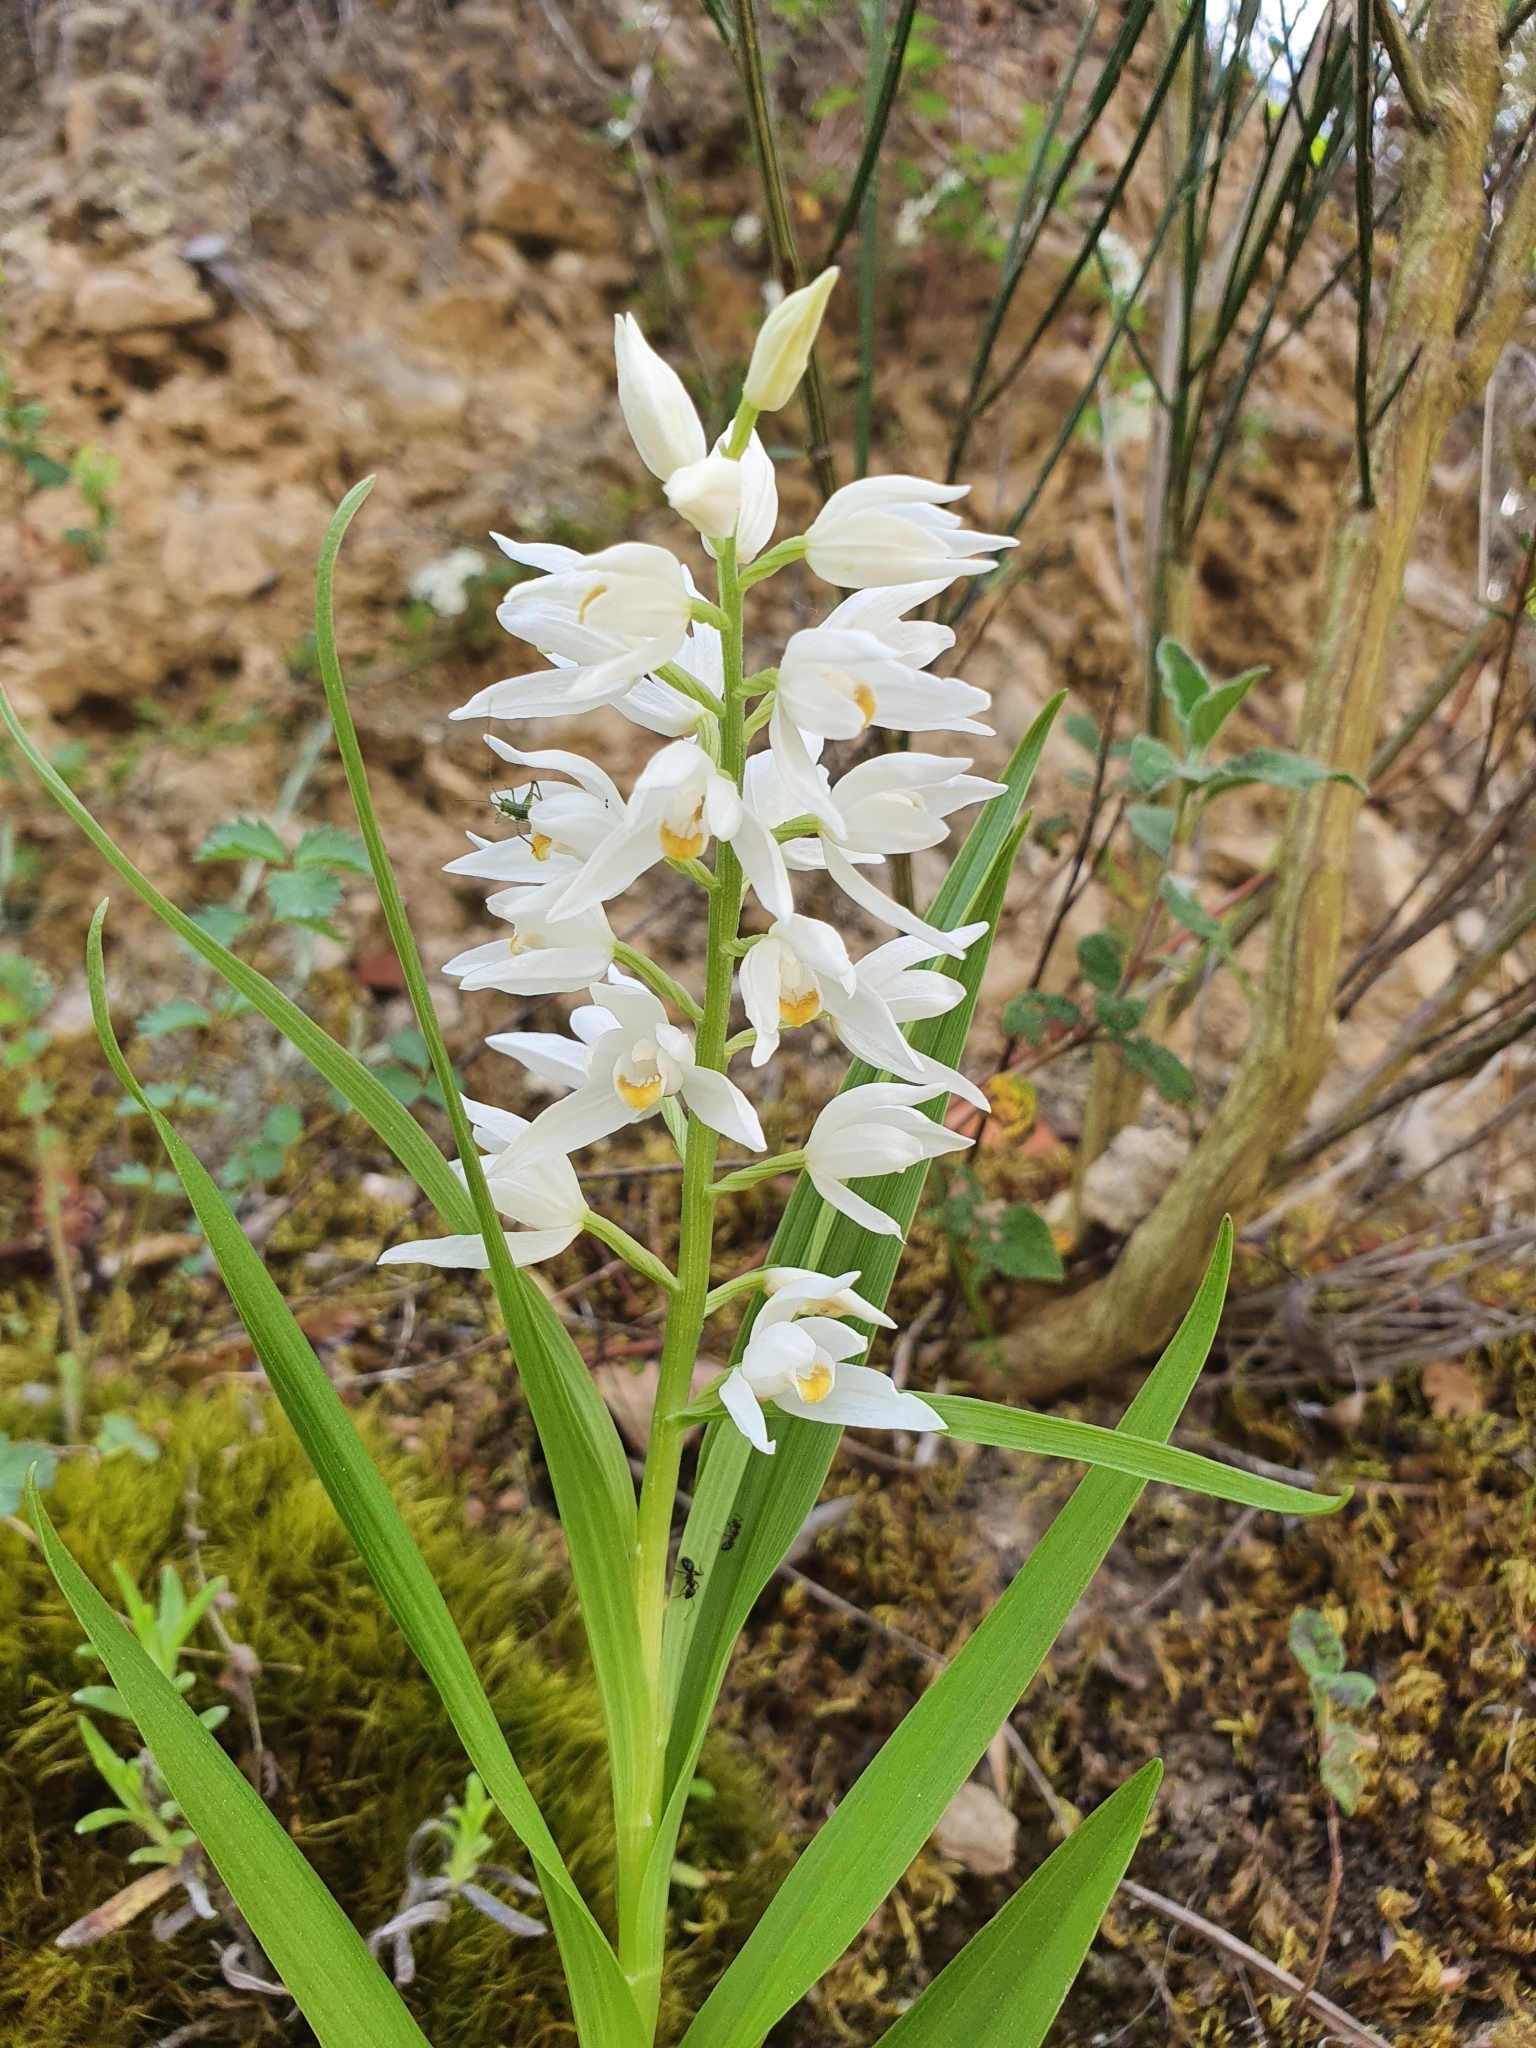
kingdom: Plantae
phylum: Tracheophyta
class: Liliopsida
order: Asparagales
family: Orchidaceae
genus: Cephalanthera
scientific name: Cephalanthera longifolia
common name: Narrow-leaved helleborine
